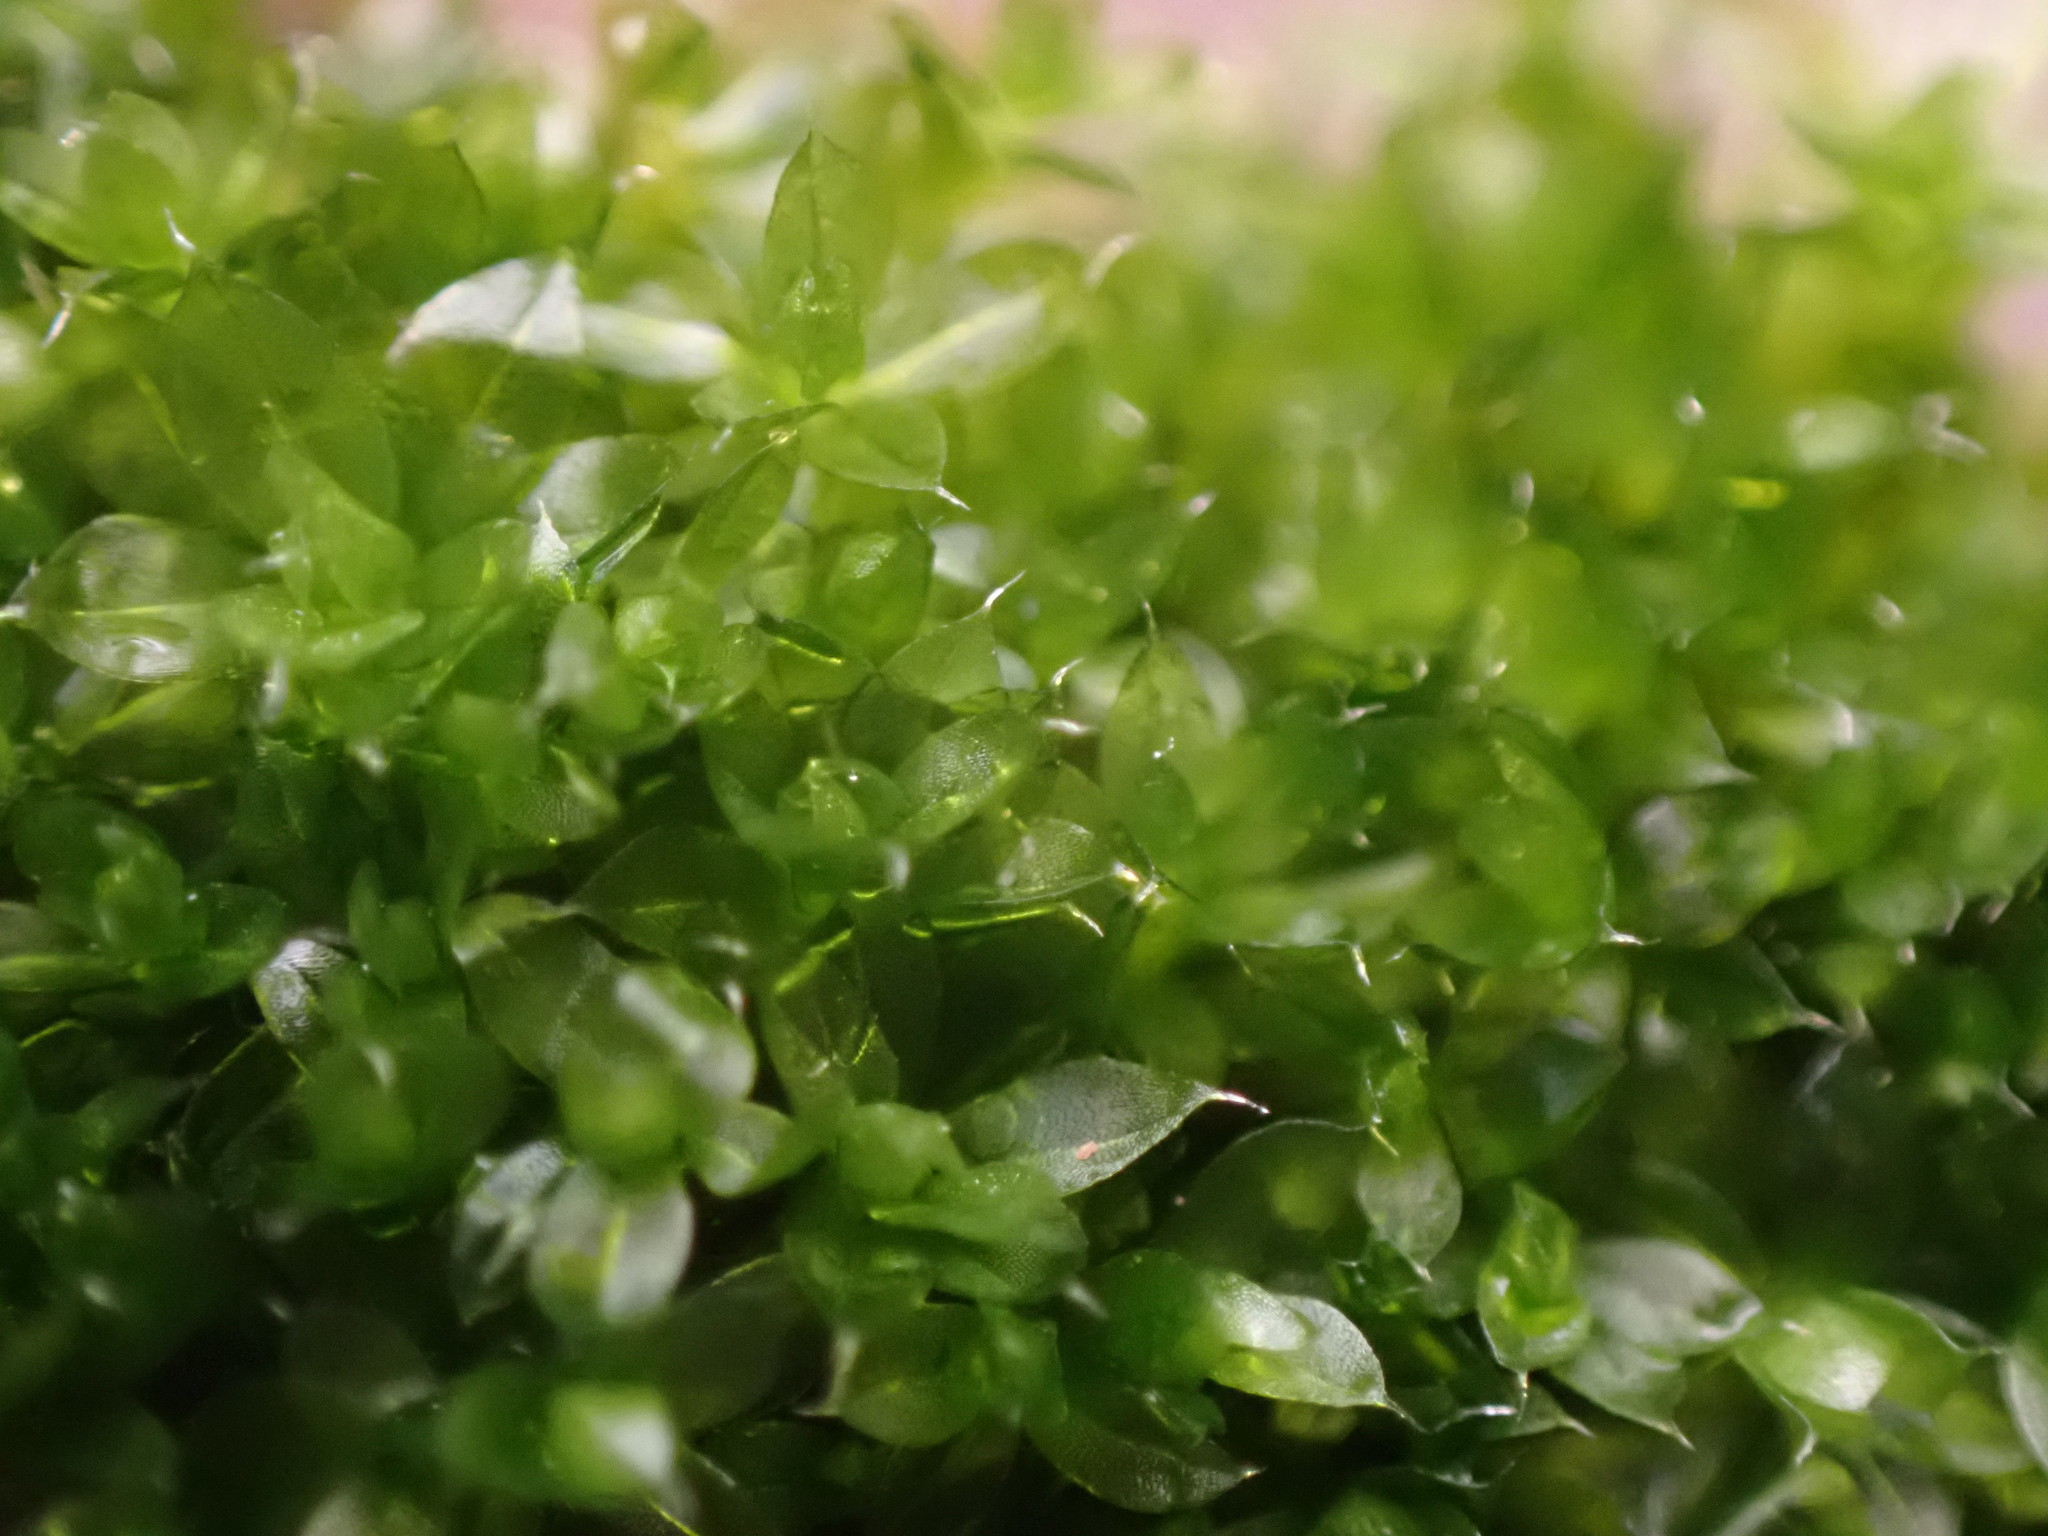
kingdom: Plantae
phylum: Bryophyta
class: Bryopsida
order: Bryales
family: Bryaceae
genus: Rosulabryum
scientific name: Rosulabryum capillare
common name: Capillary thread-moss
